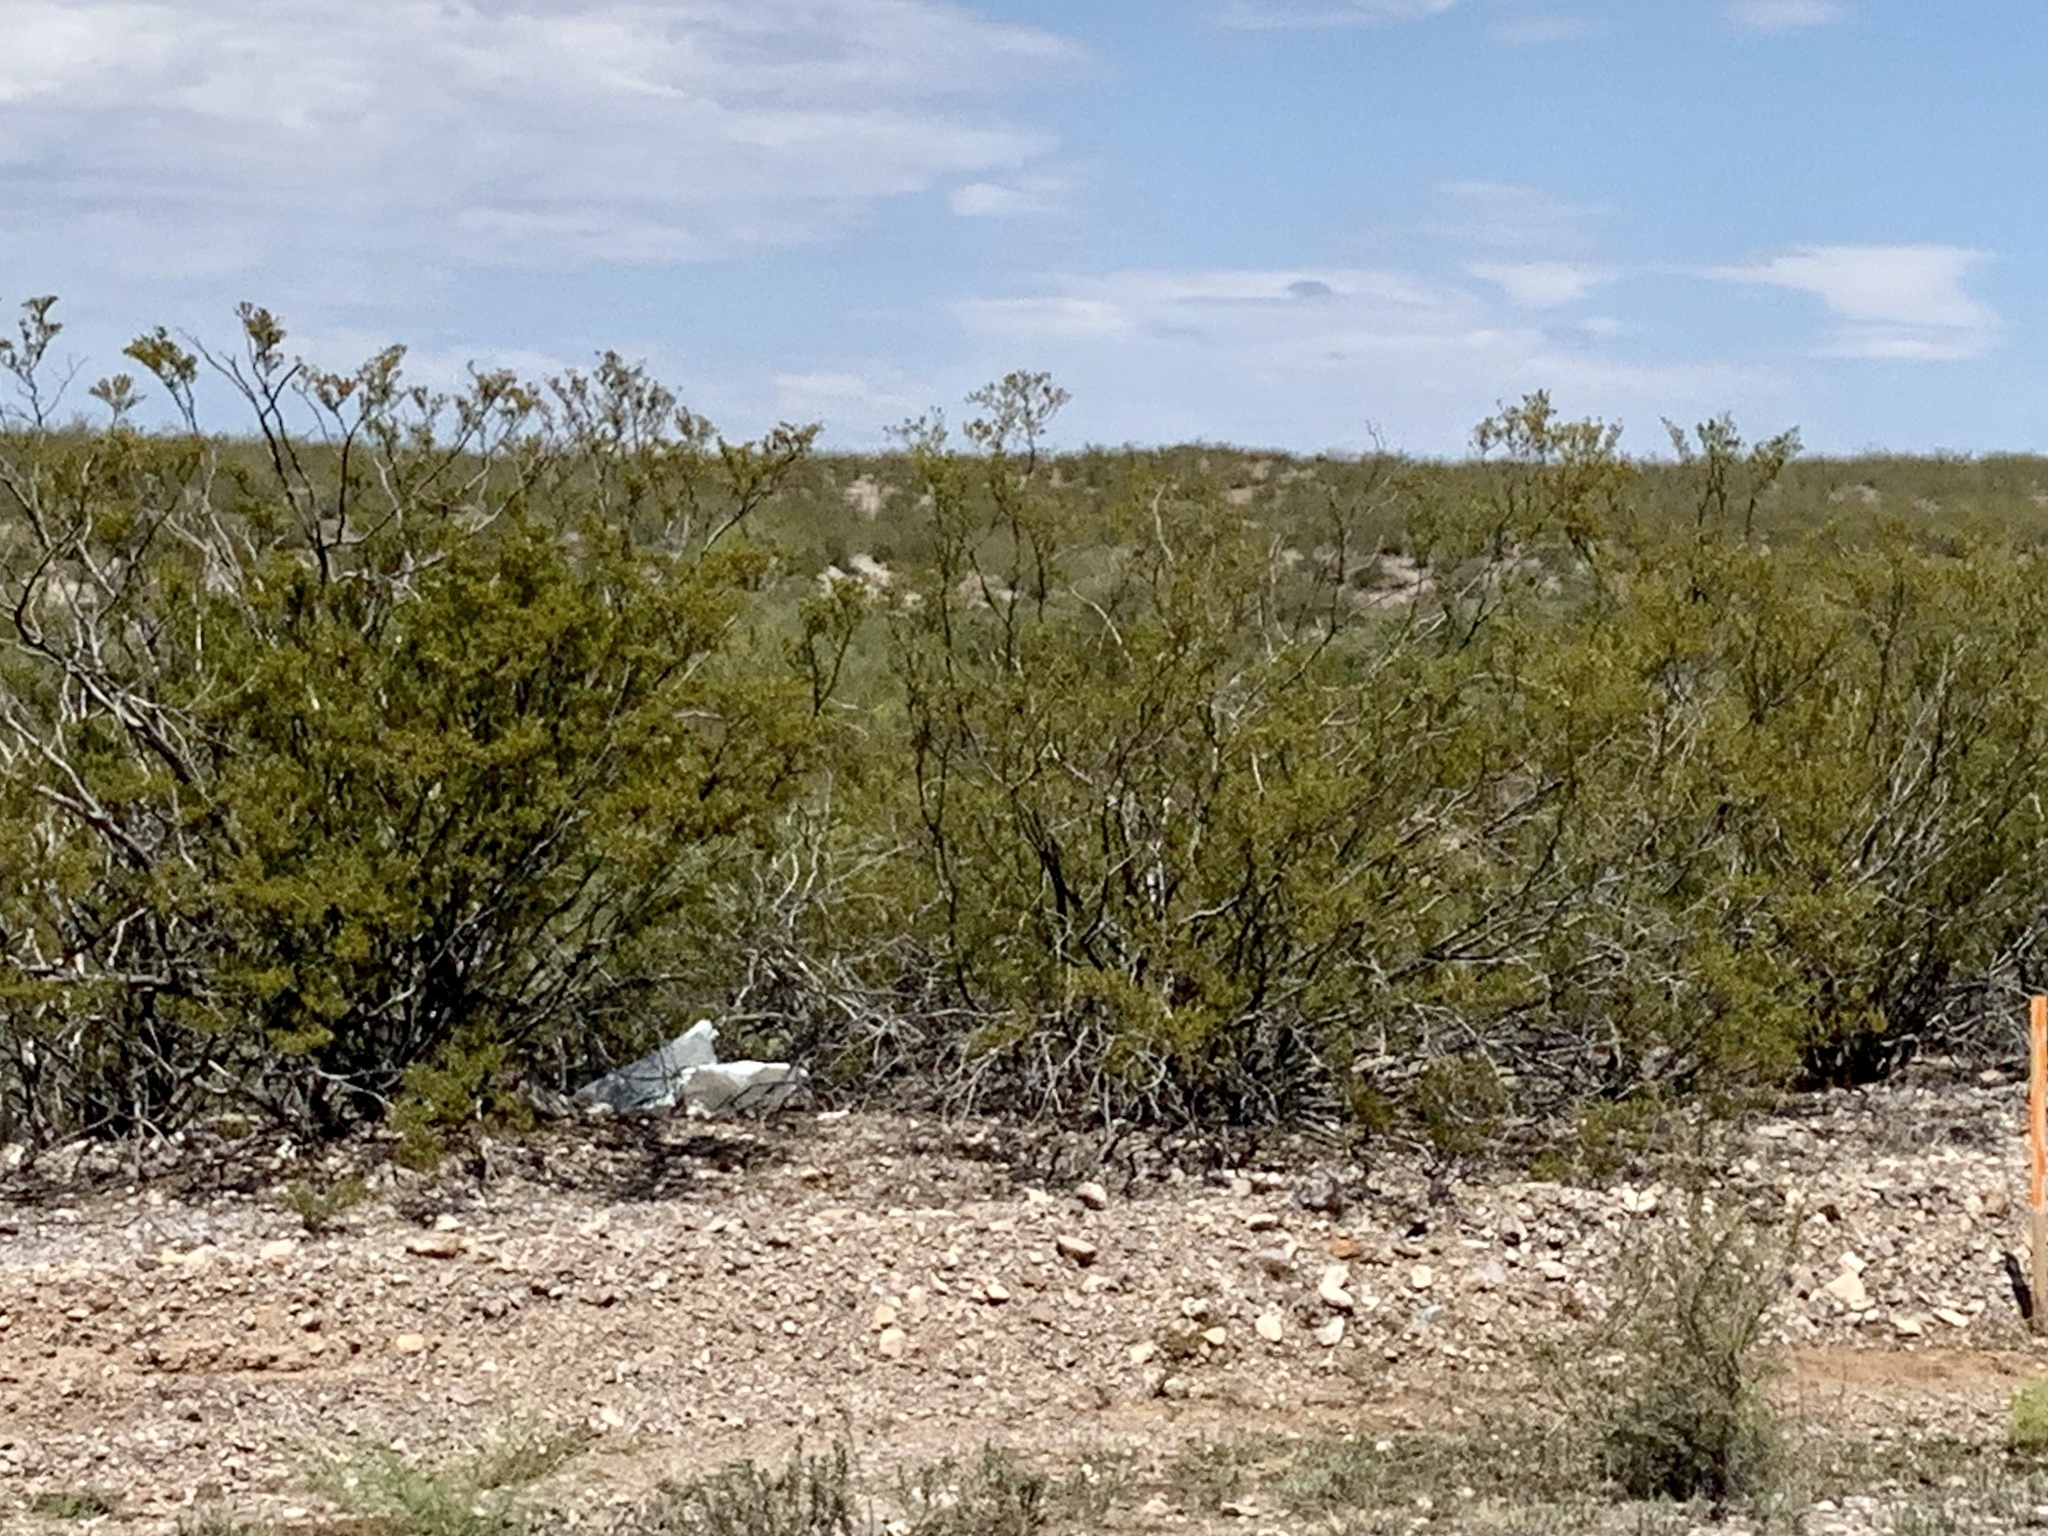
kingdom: Plantae
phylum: Tracheophyta
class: Magnoliopsida
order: Zygophyllales
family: Zygophyllaceae
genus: Larrea
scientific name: Larrea tridentata
